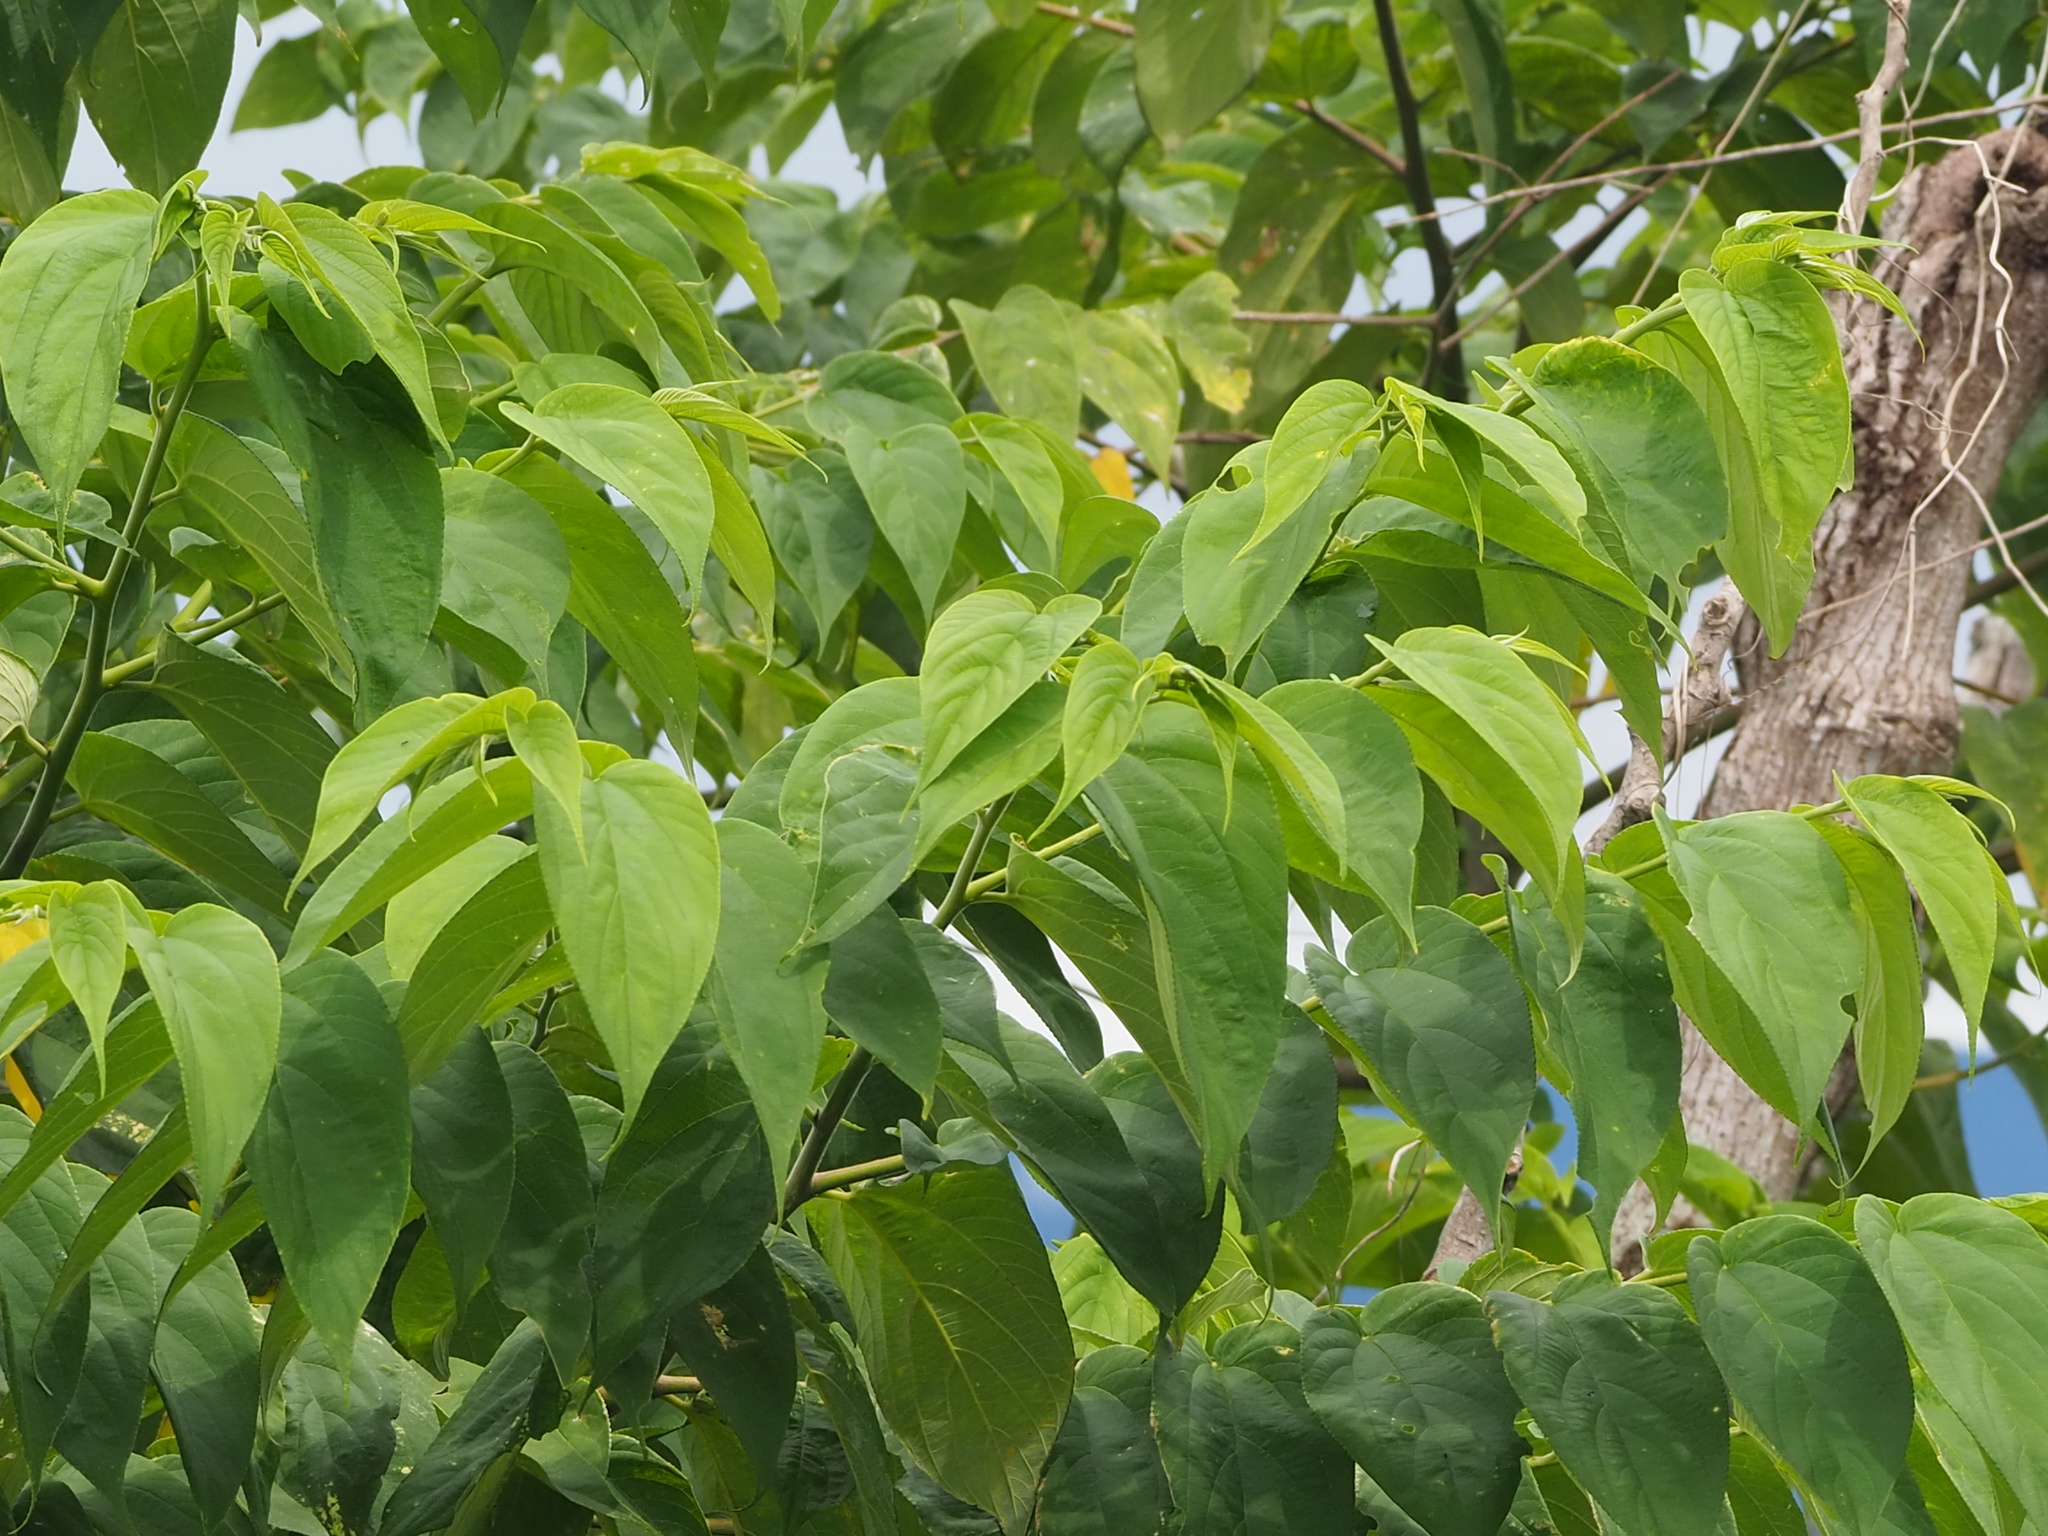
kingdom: Plantae
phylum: Tracheophyta
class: Magnoliopsida
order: Rosales
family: Cannabaceae
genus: Trema
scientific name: Trema orientale
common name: Indian charcoal tree
